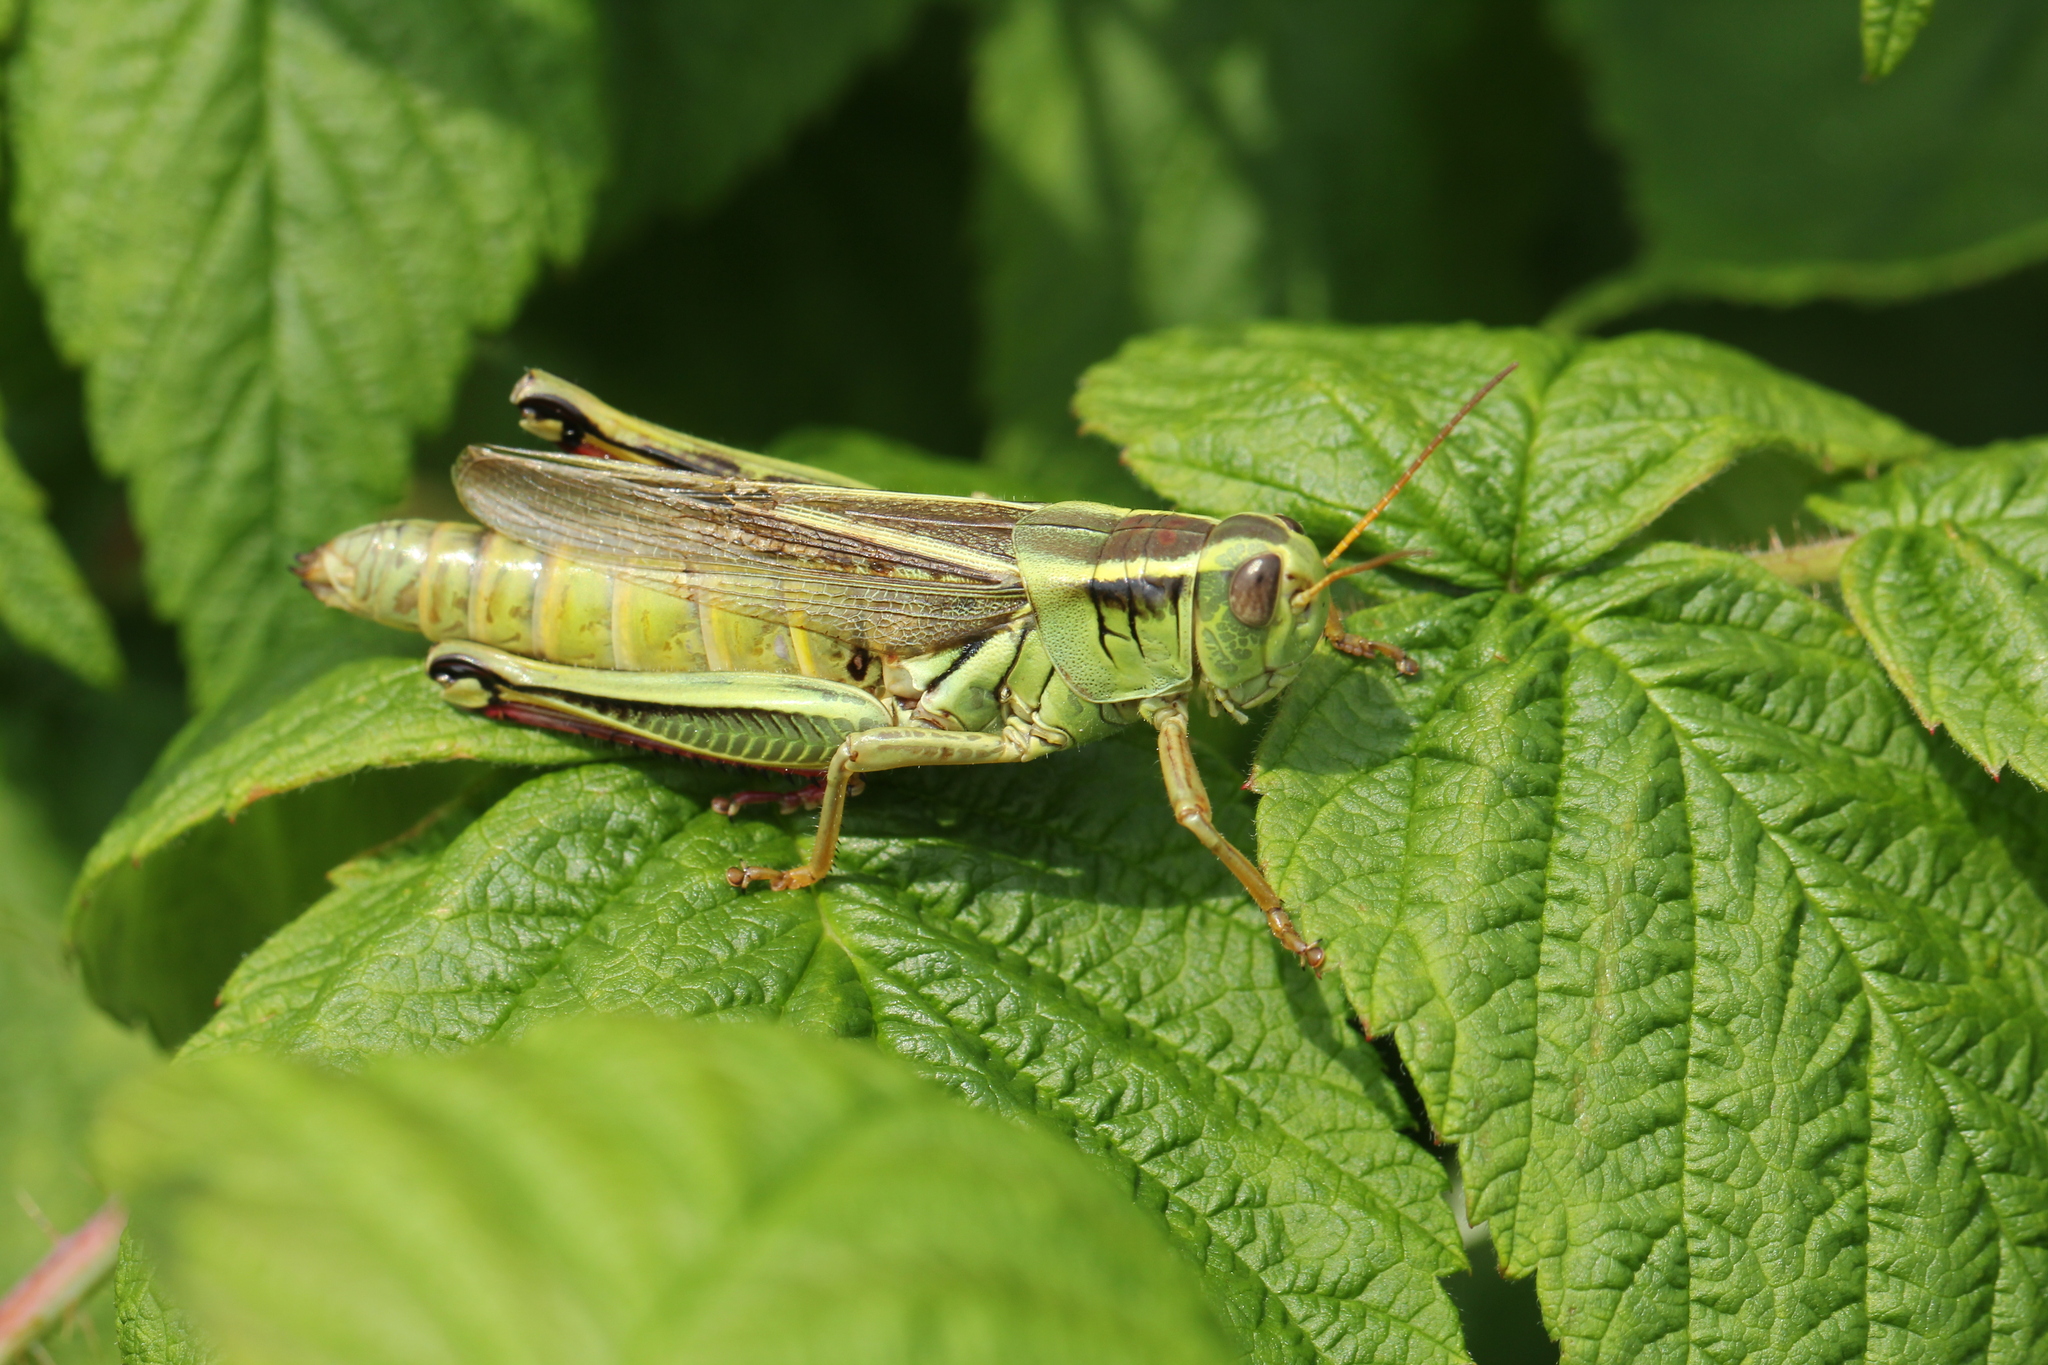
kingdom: Animalia
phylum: Arthropoda
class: Insecta
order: Orthoptera
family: Acrididae
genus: Melanoplus
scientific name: Melanoplus bivittatus
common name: Two-striped grasshopper
